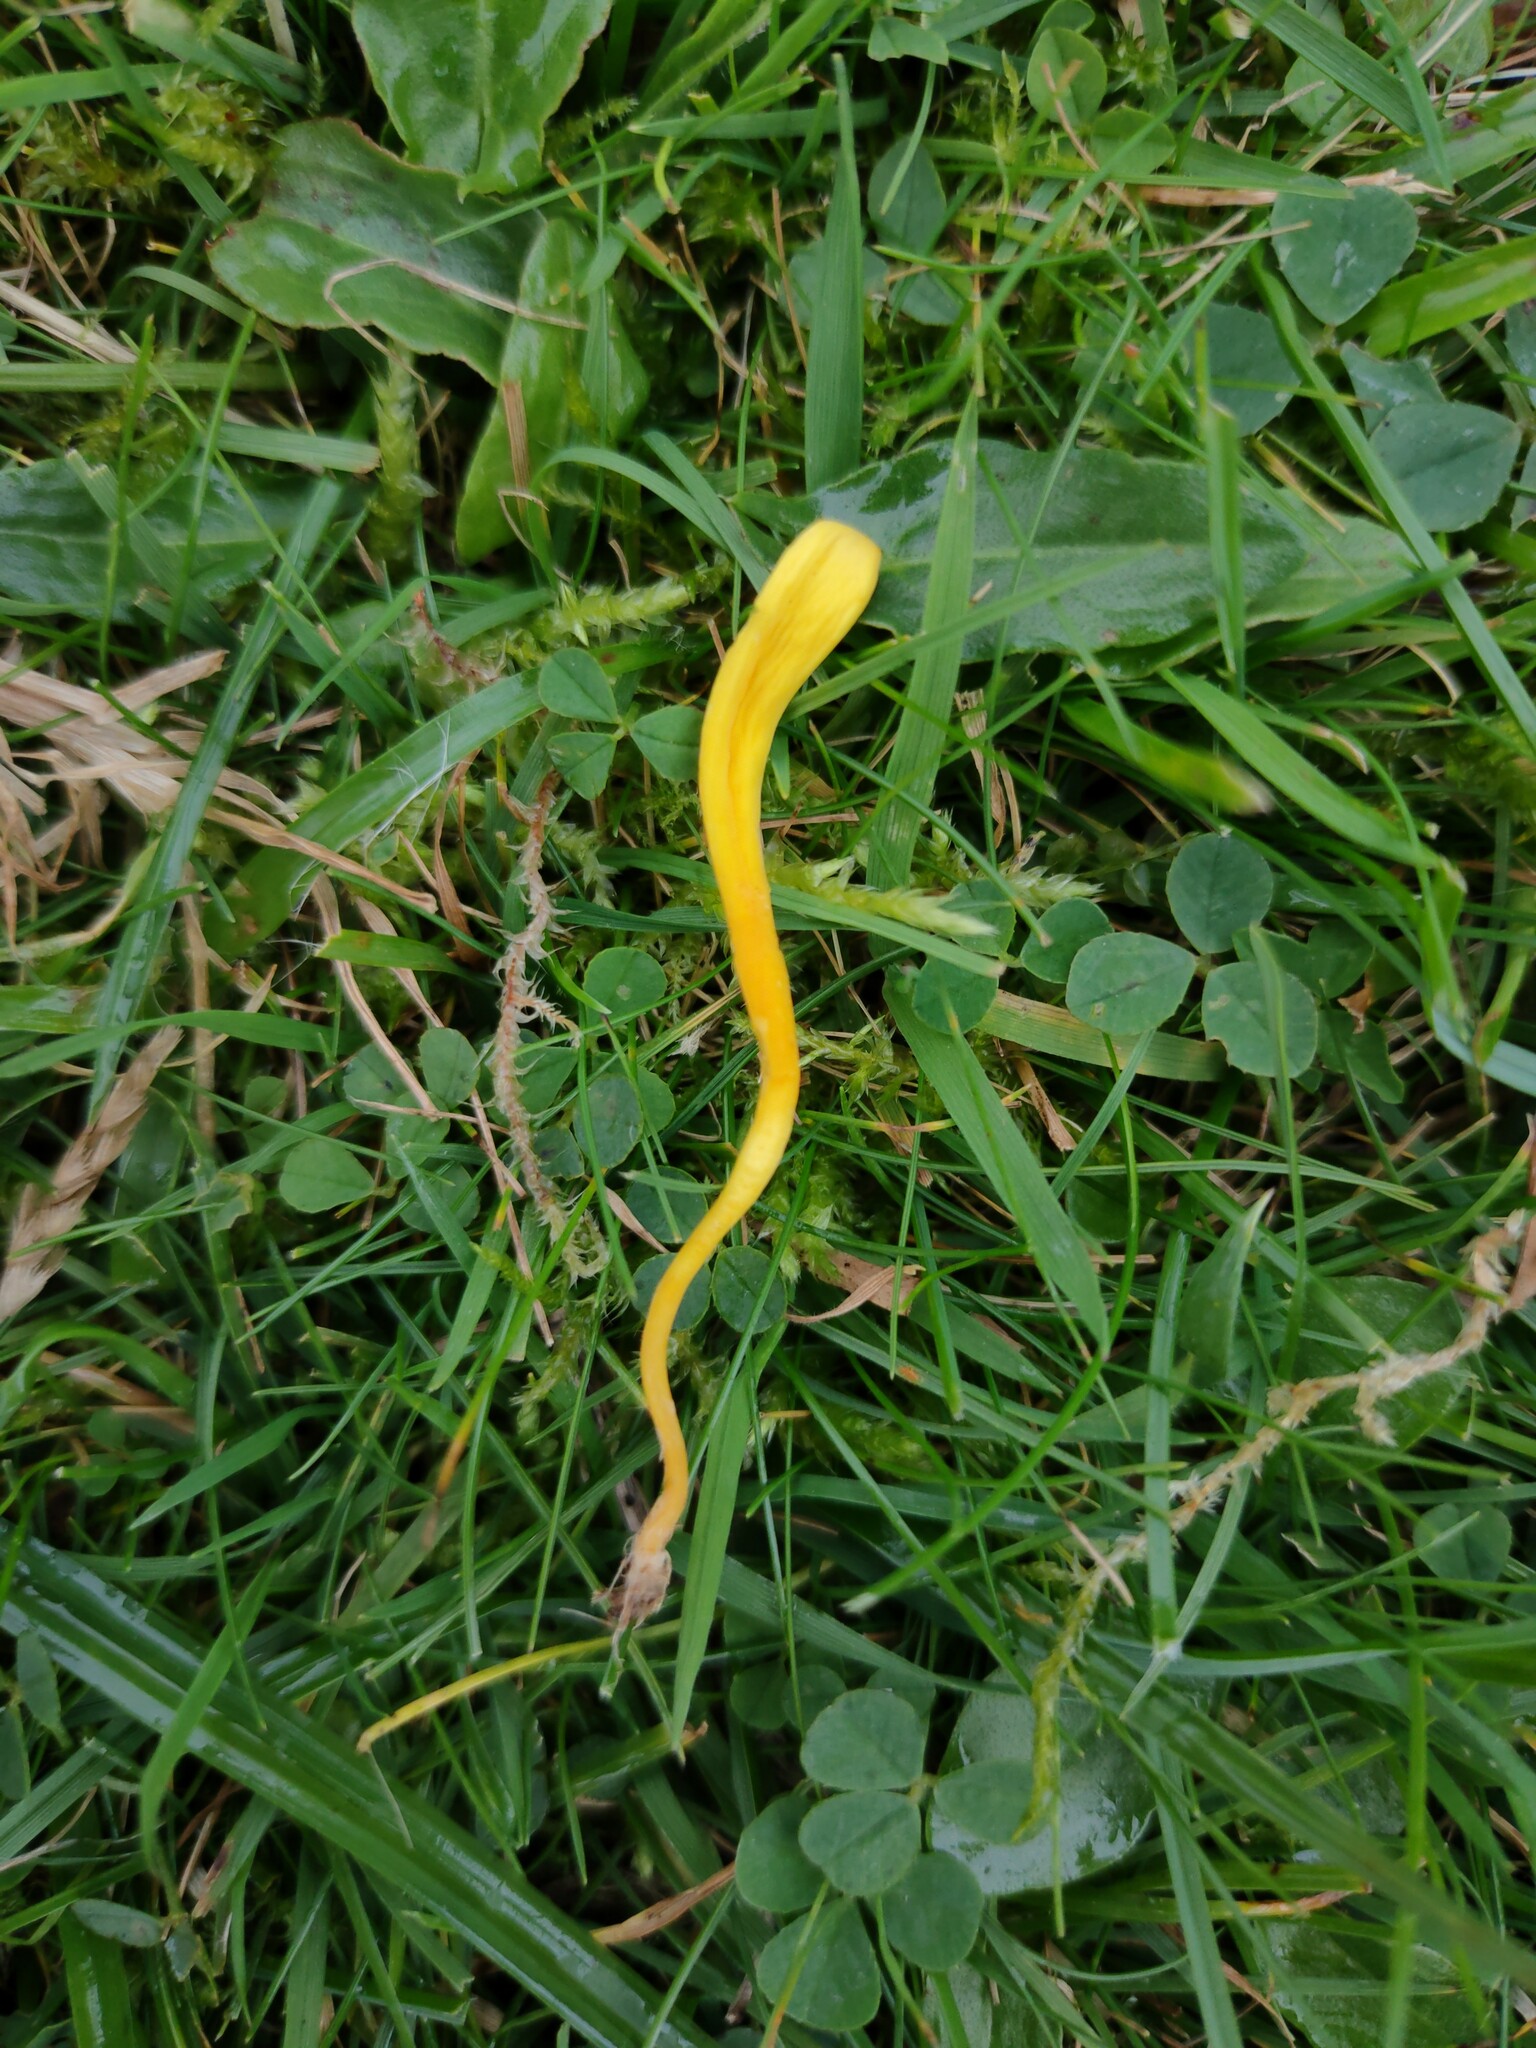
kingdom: Fungi
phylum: Basidiomycota
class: Agaricomycetes
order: Agaricales
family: Clavariaceae
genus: Clavulinopsis
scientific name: Clavulinopsis helvola
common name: Yellow club
